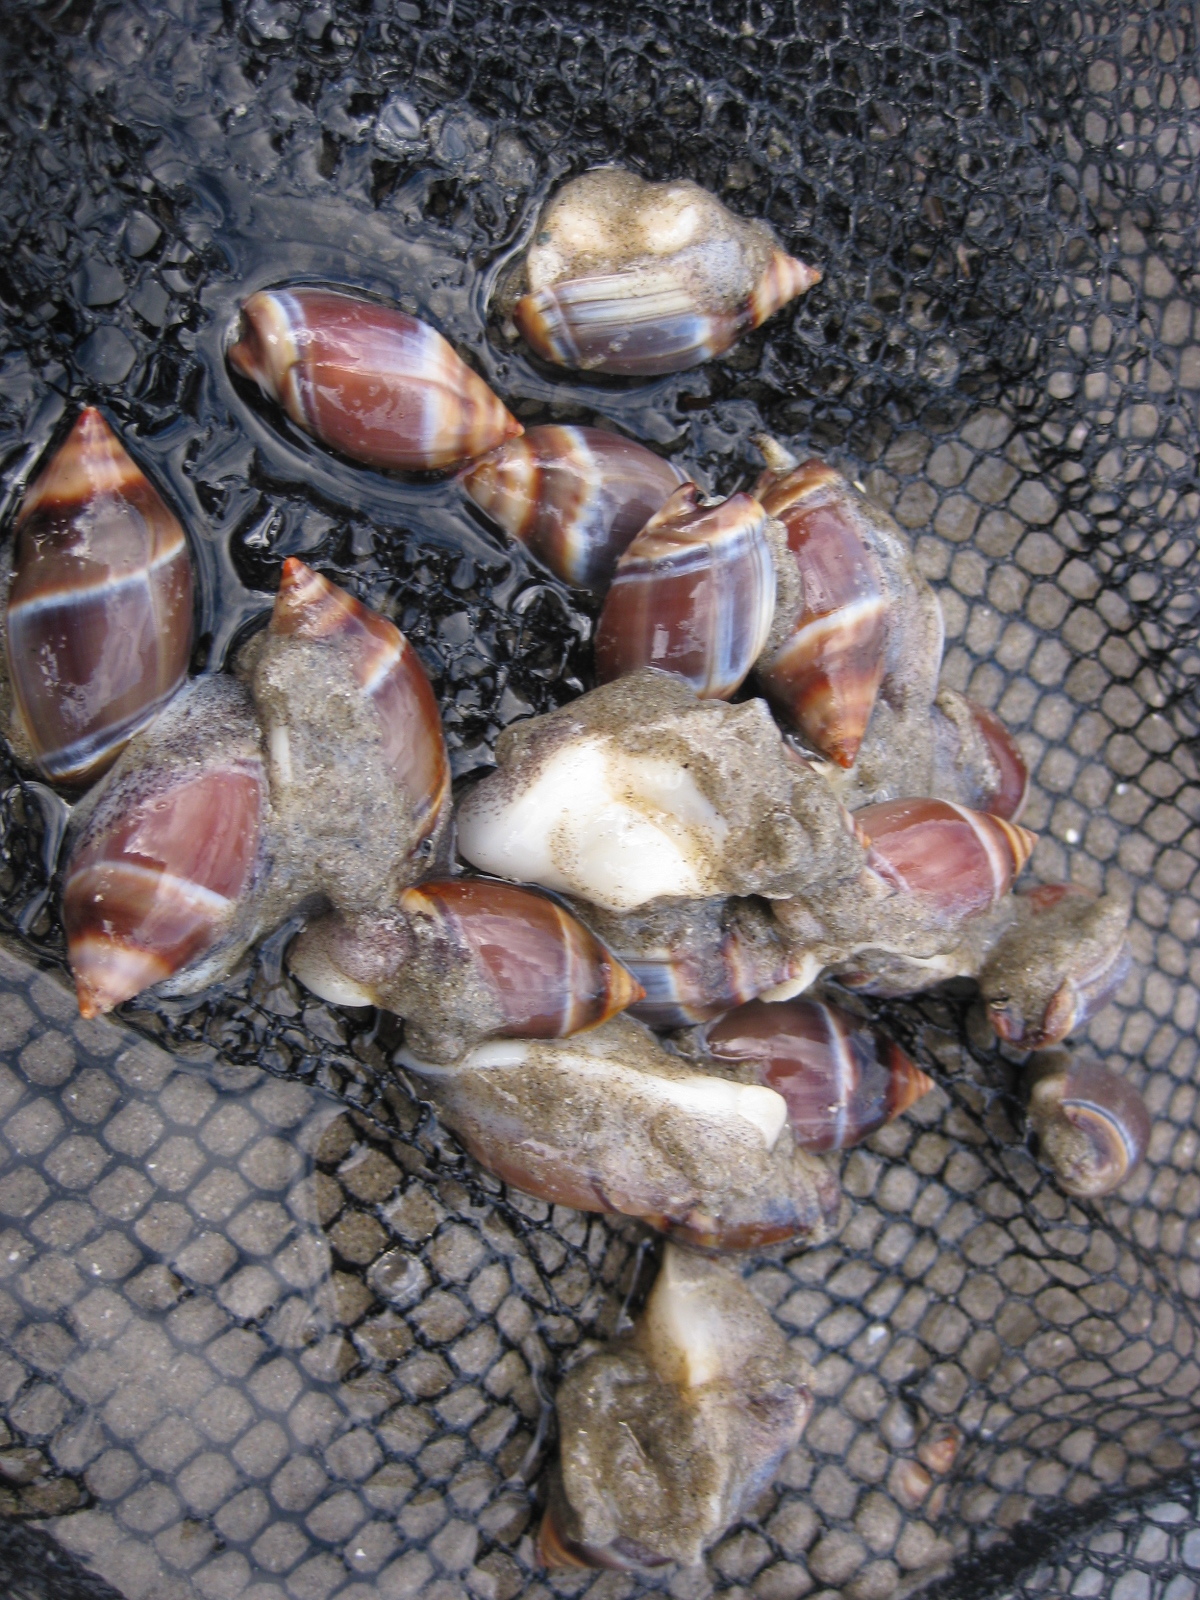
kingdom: Animalia
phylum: Mollusca
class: Gastropoda
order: Neogastropoda
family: Ancillariidae
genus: Amalda
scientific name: Amalda australis
